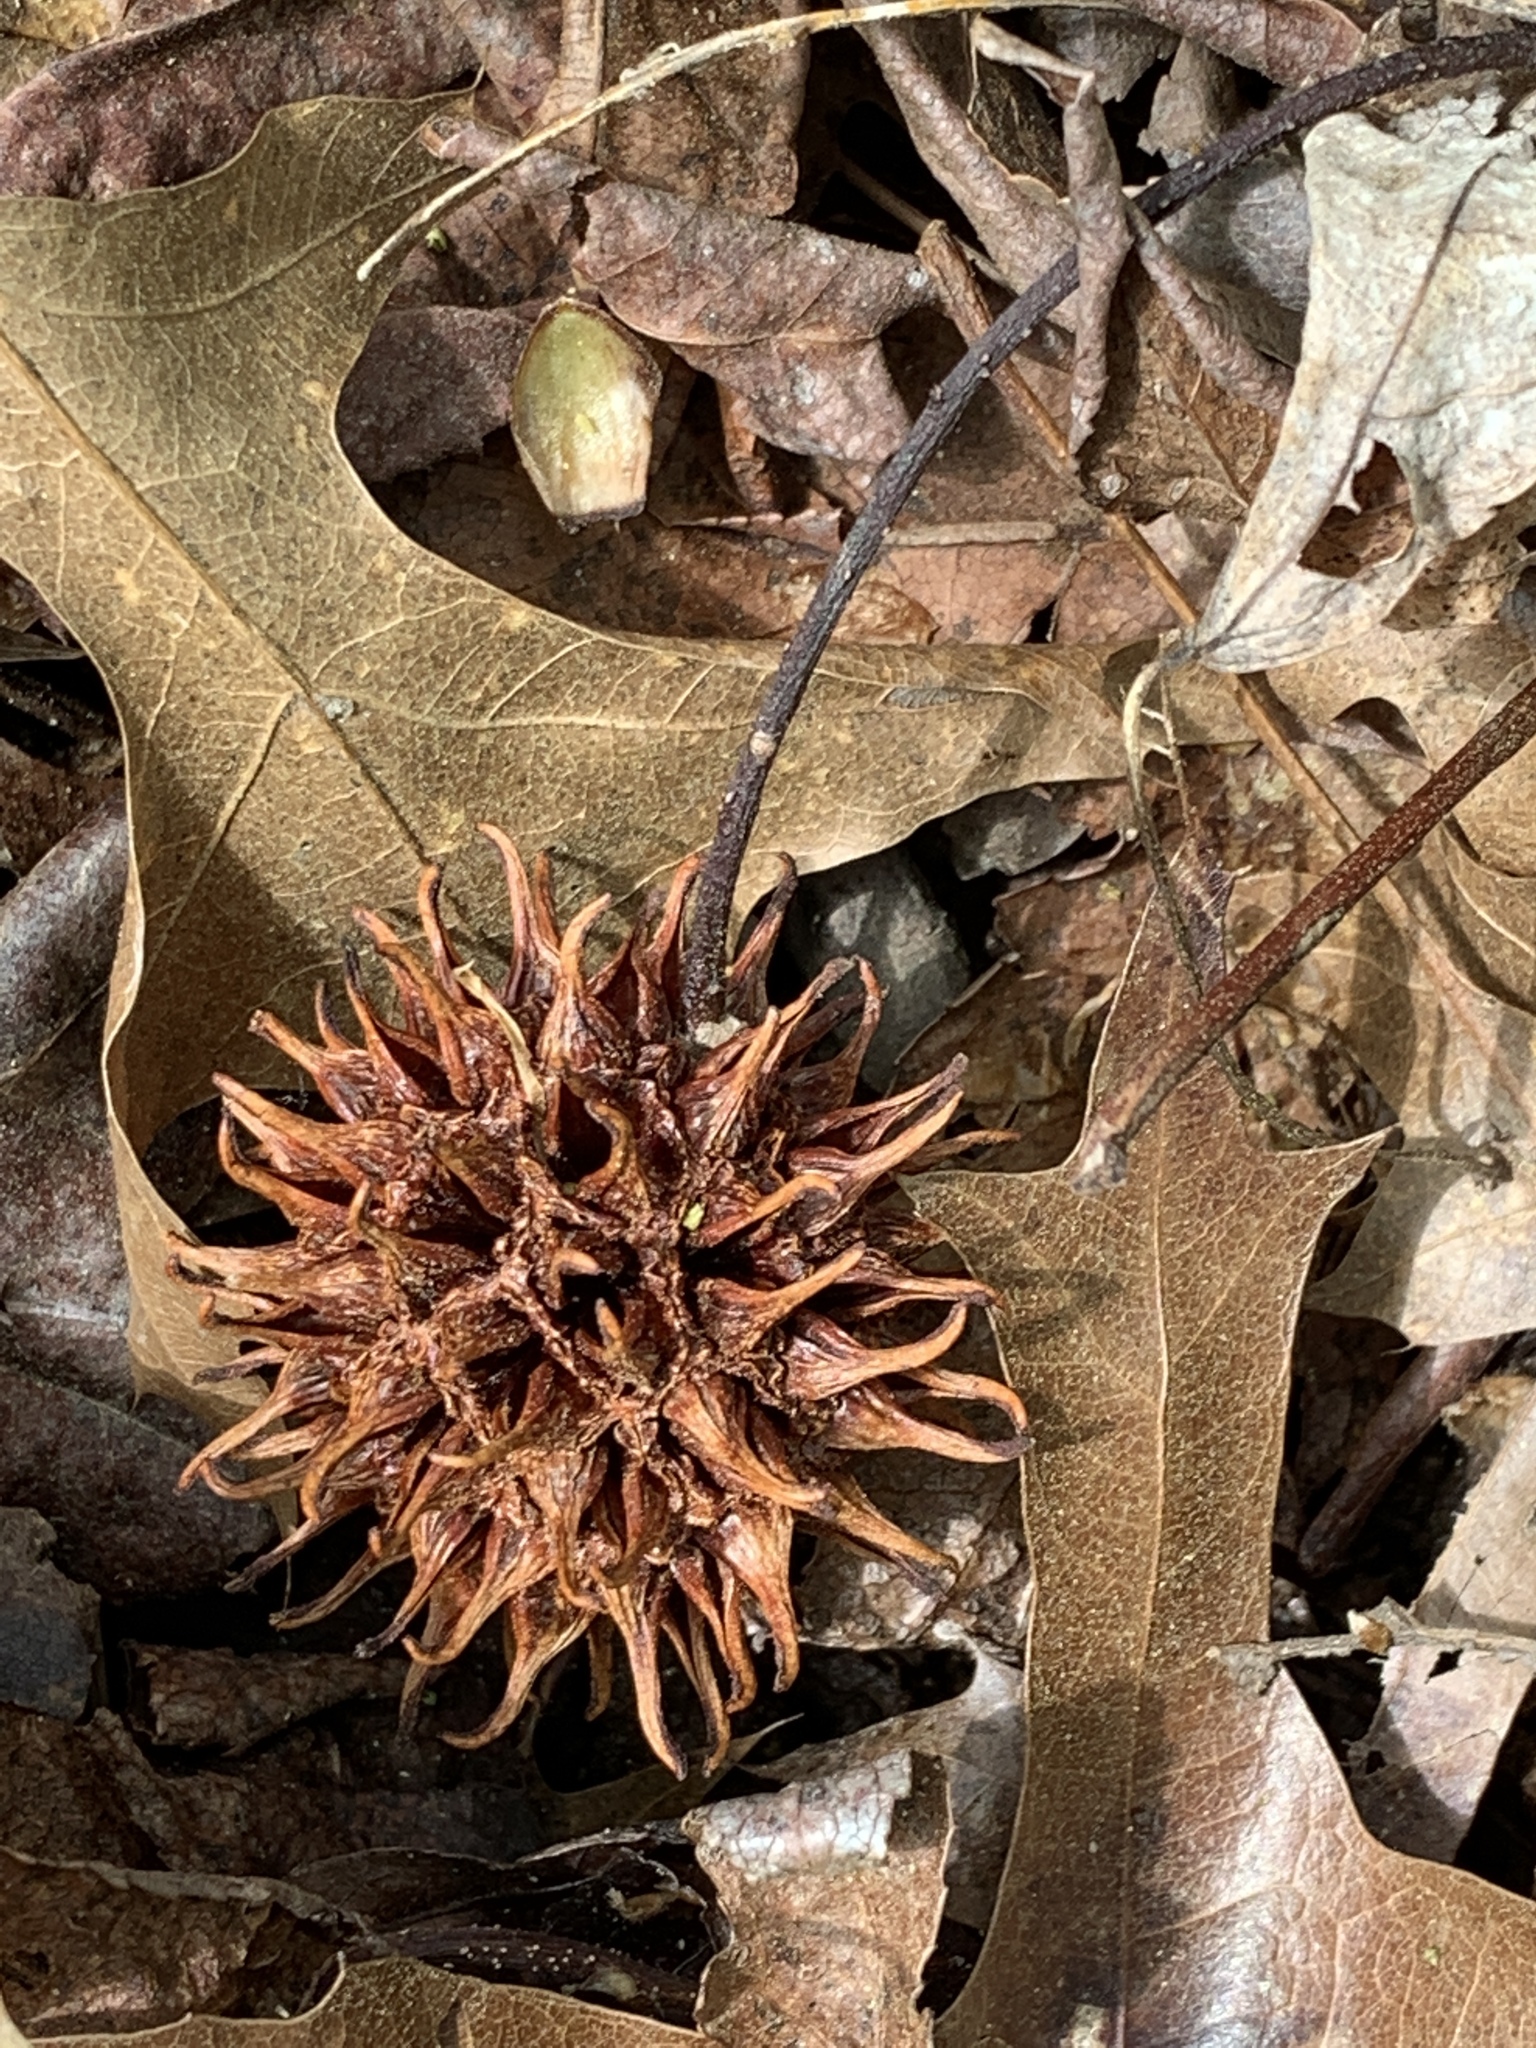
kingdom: Plantae
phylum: Tracheophyta
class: Magnoliopsida
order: Saxifragales
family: Altingiaceae
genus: Liquidambar
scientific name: Liquidambar styraciflua
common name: Sweet gum
